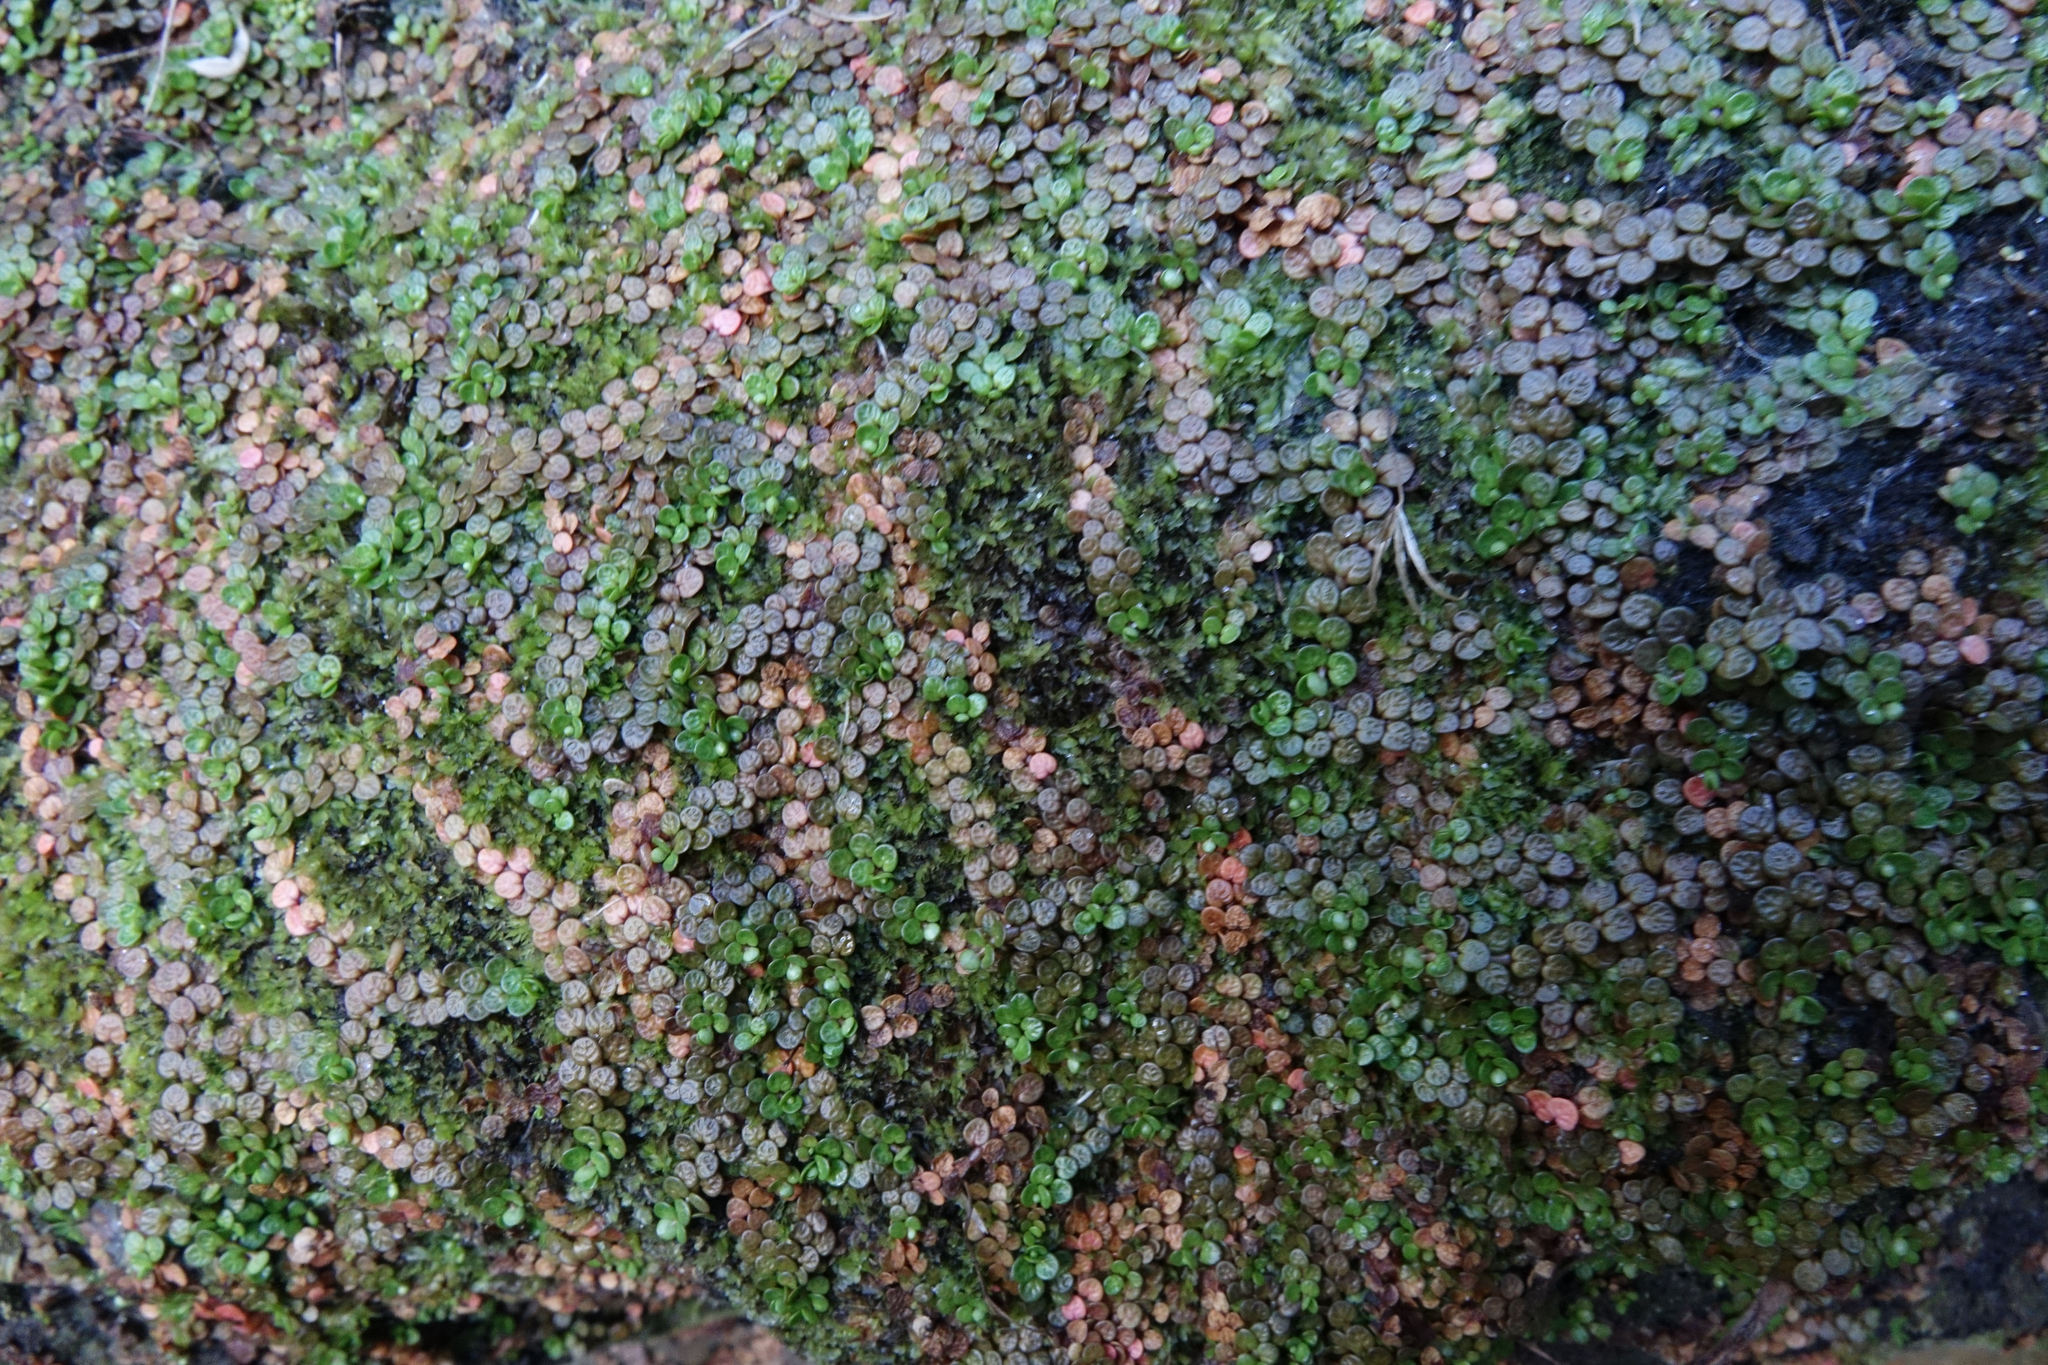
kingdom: Plantae
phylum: Tracheophyta
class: Magnoliopsida
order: Myrtales
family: Onagraceae
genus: Epilobium
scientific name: Epilobium komarovianum
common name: Bronzy willowherb
